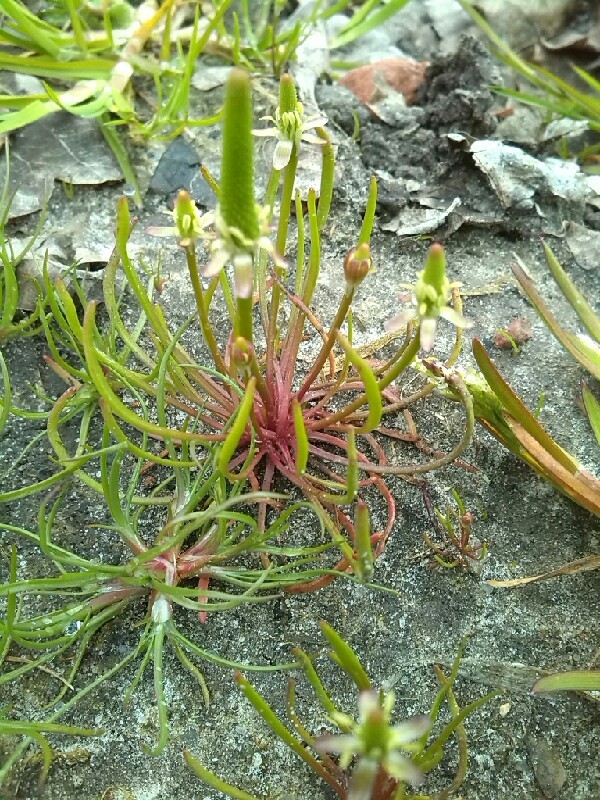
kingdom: Plantae
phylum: Tracheophyta
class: Magnoliopsida
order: Ranunculales
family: Ranunculaceae
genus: Myosurus
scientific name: Myosurus minimus
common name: Mousetail
